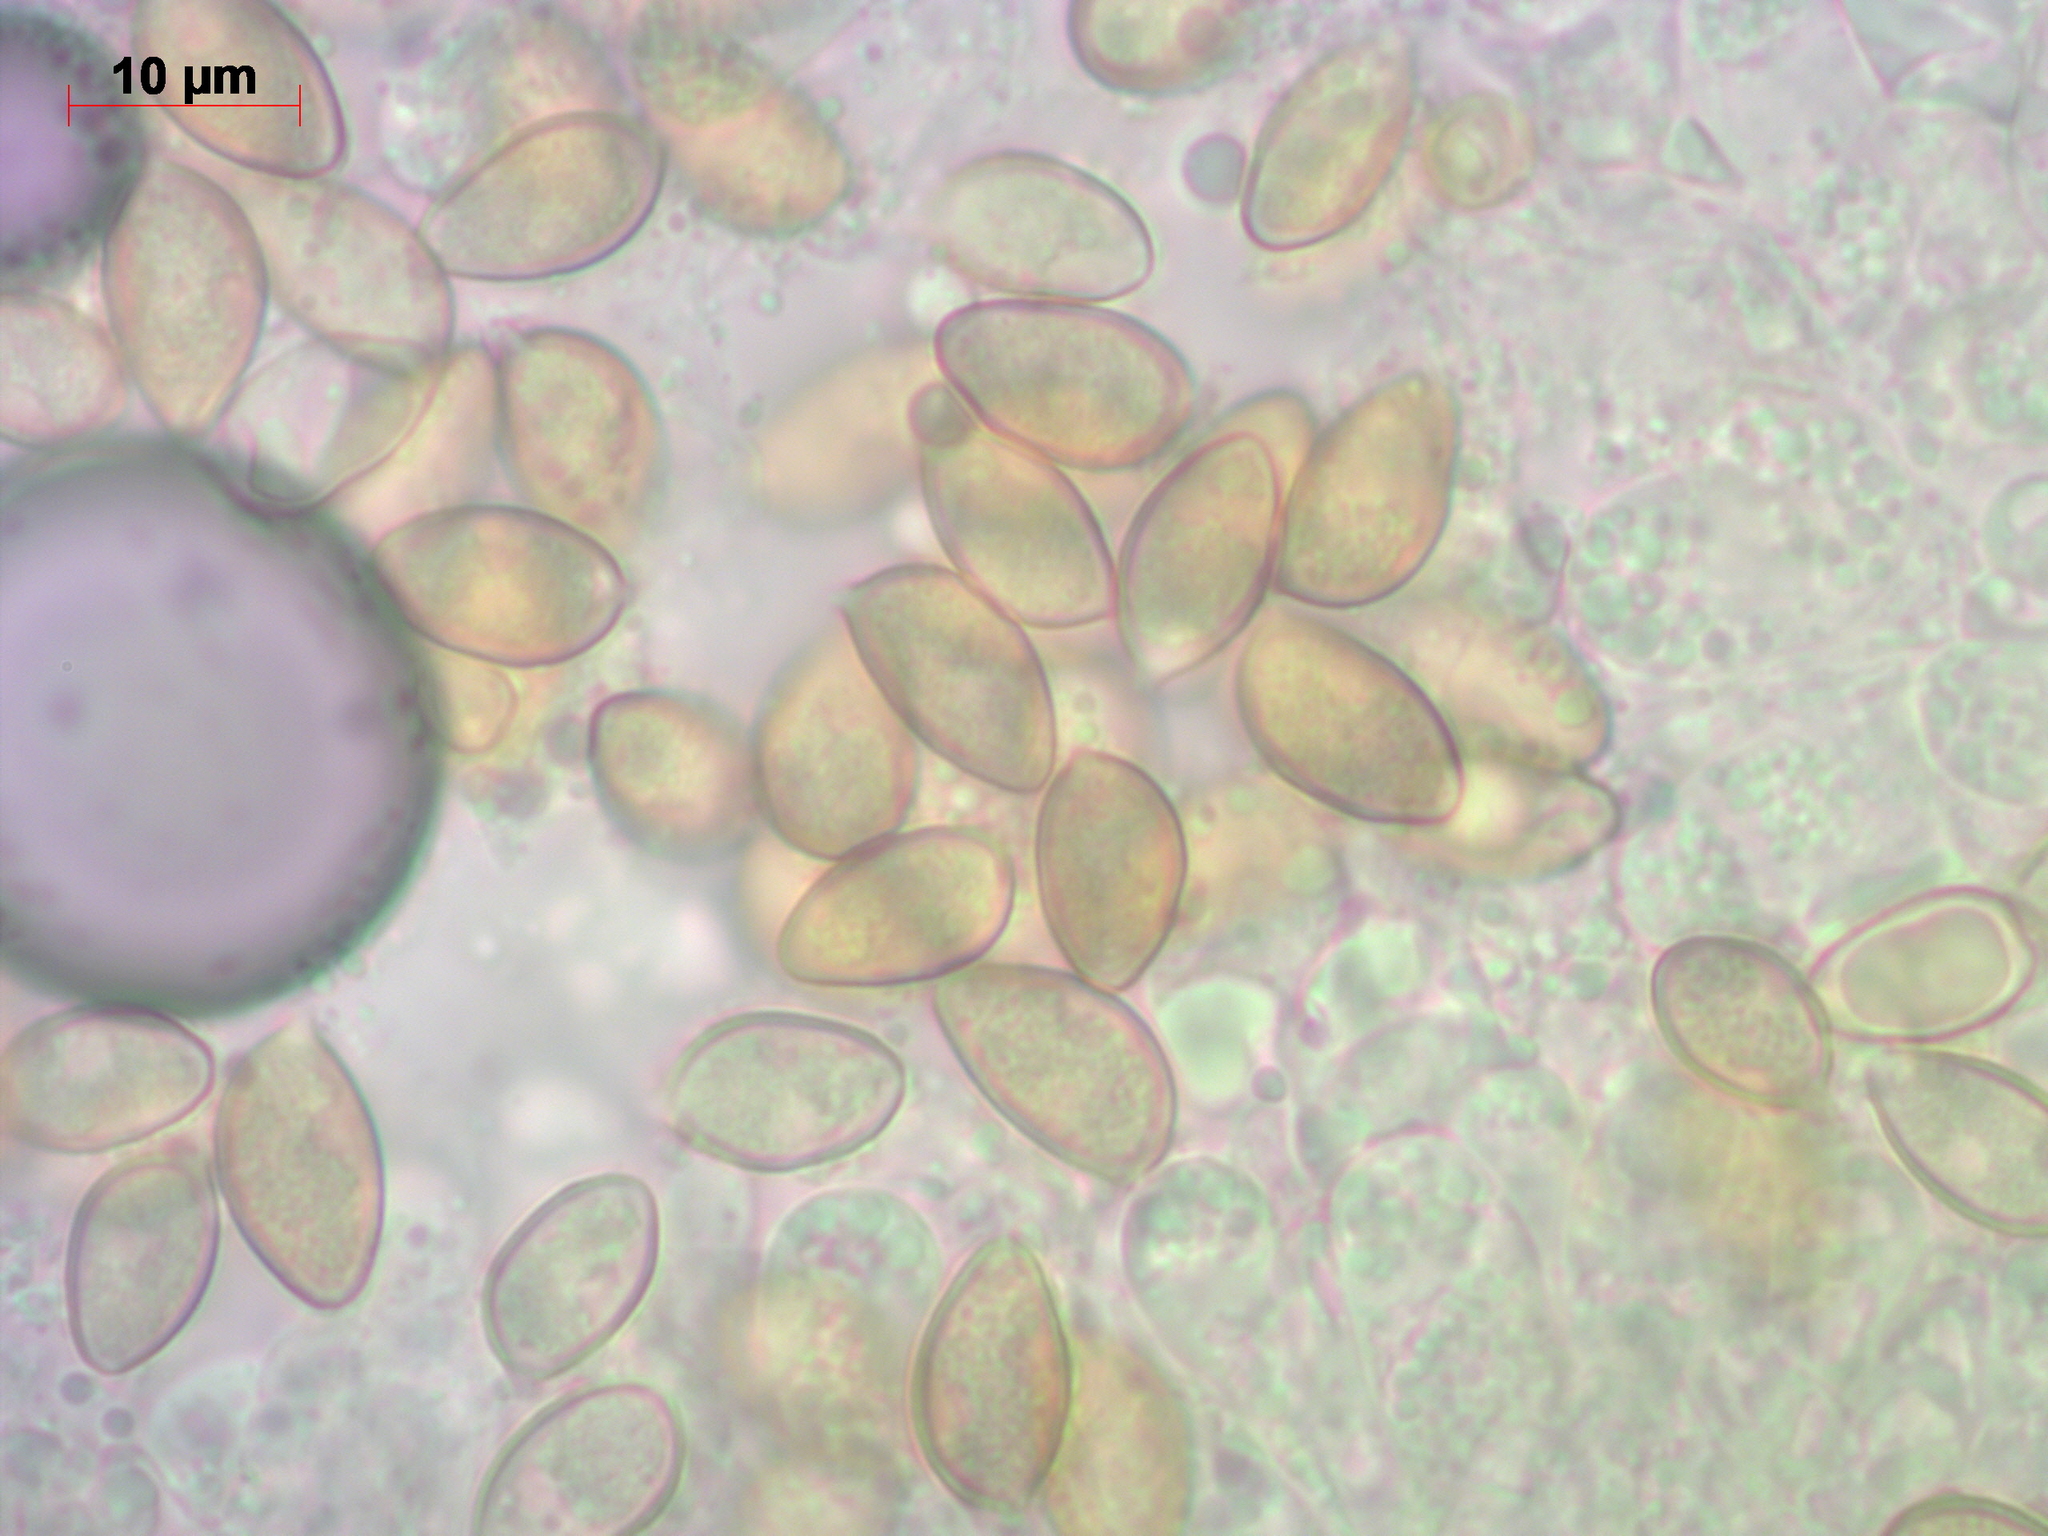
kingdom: Fungi
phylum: Basidiomycota
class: Agaricomycetes
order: Agaricales
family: Hymenogastraceae
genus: Hebeloma
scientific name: Hebeloma crustuliniforme
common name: Poison pie
